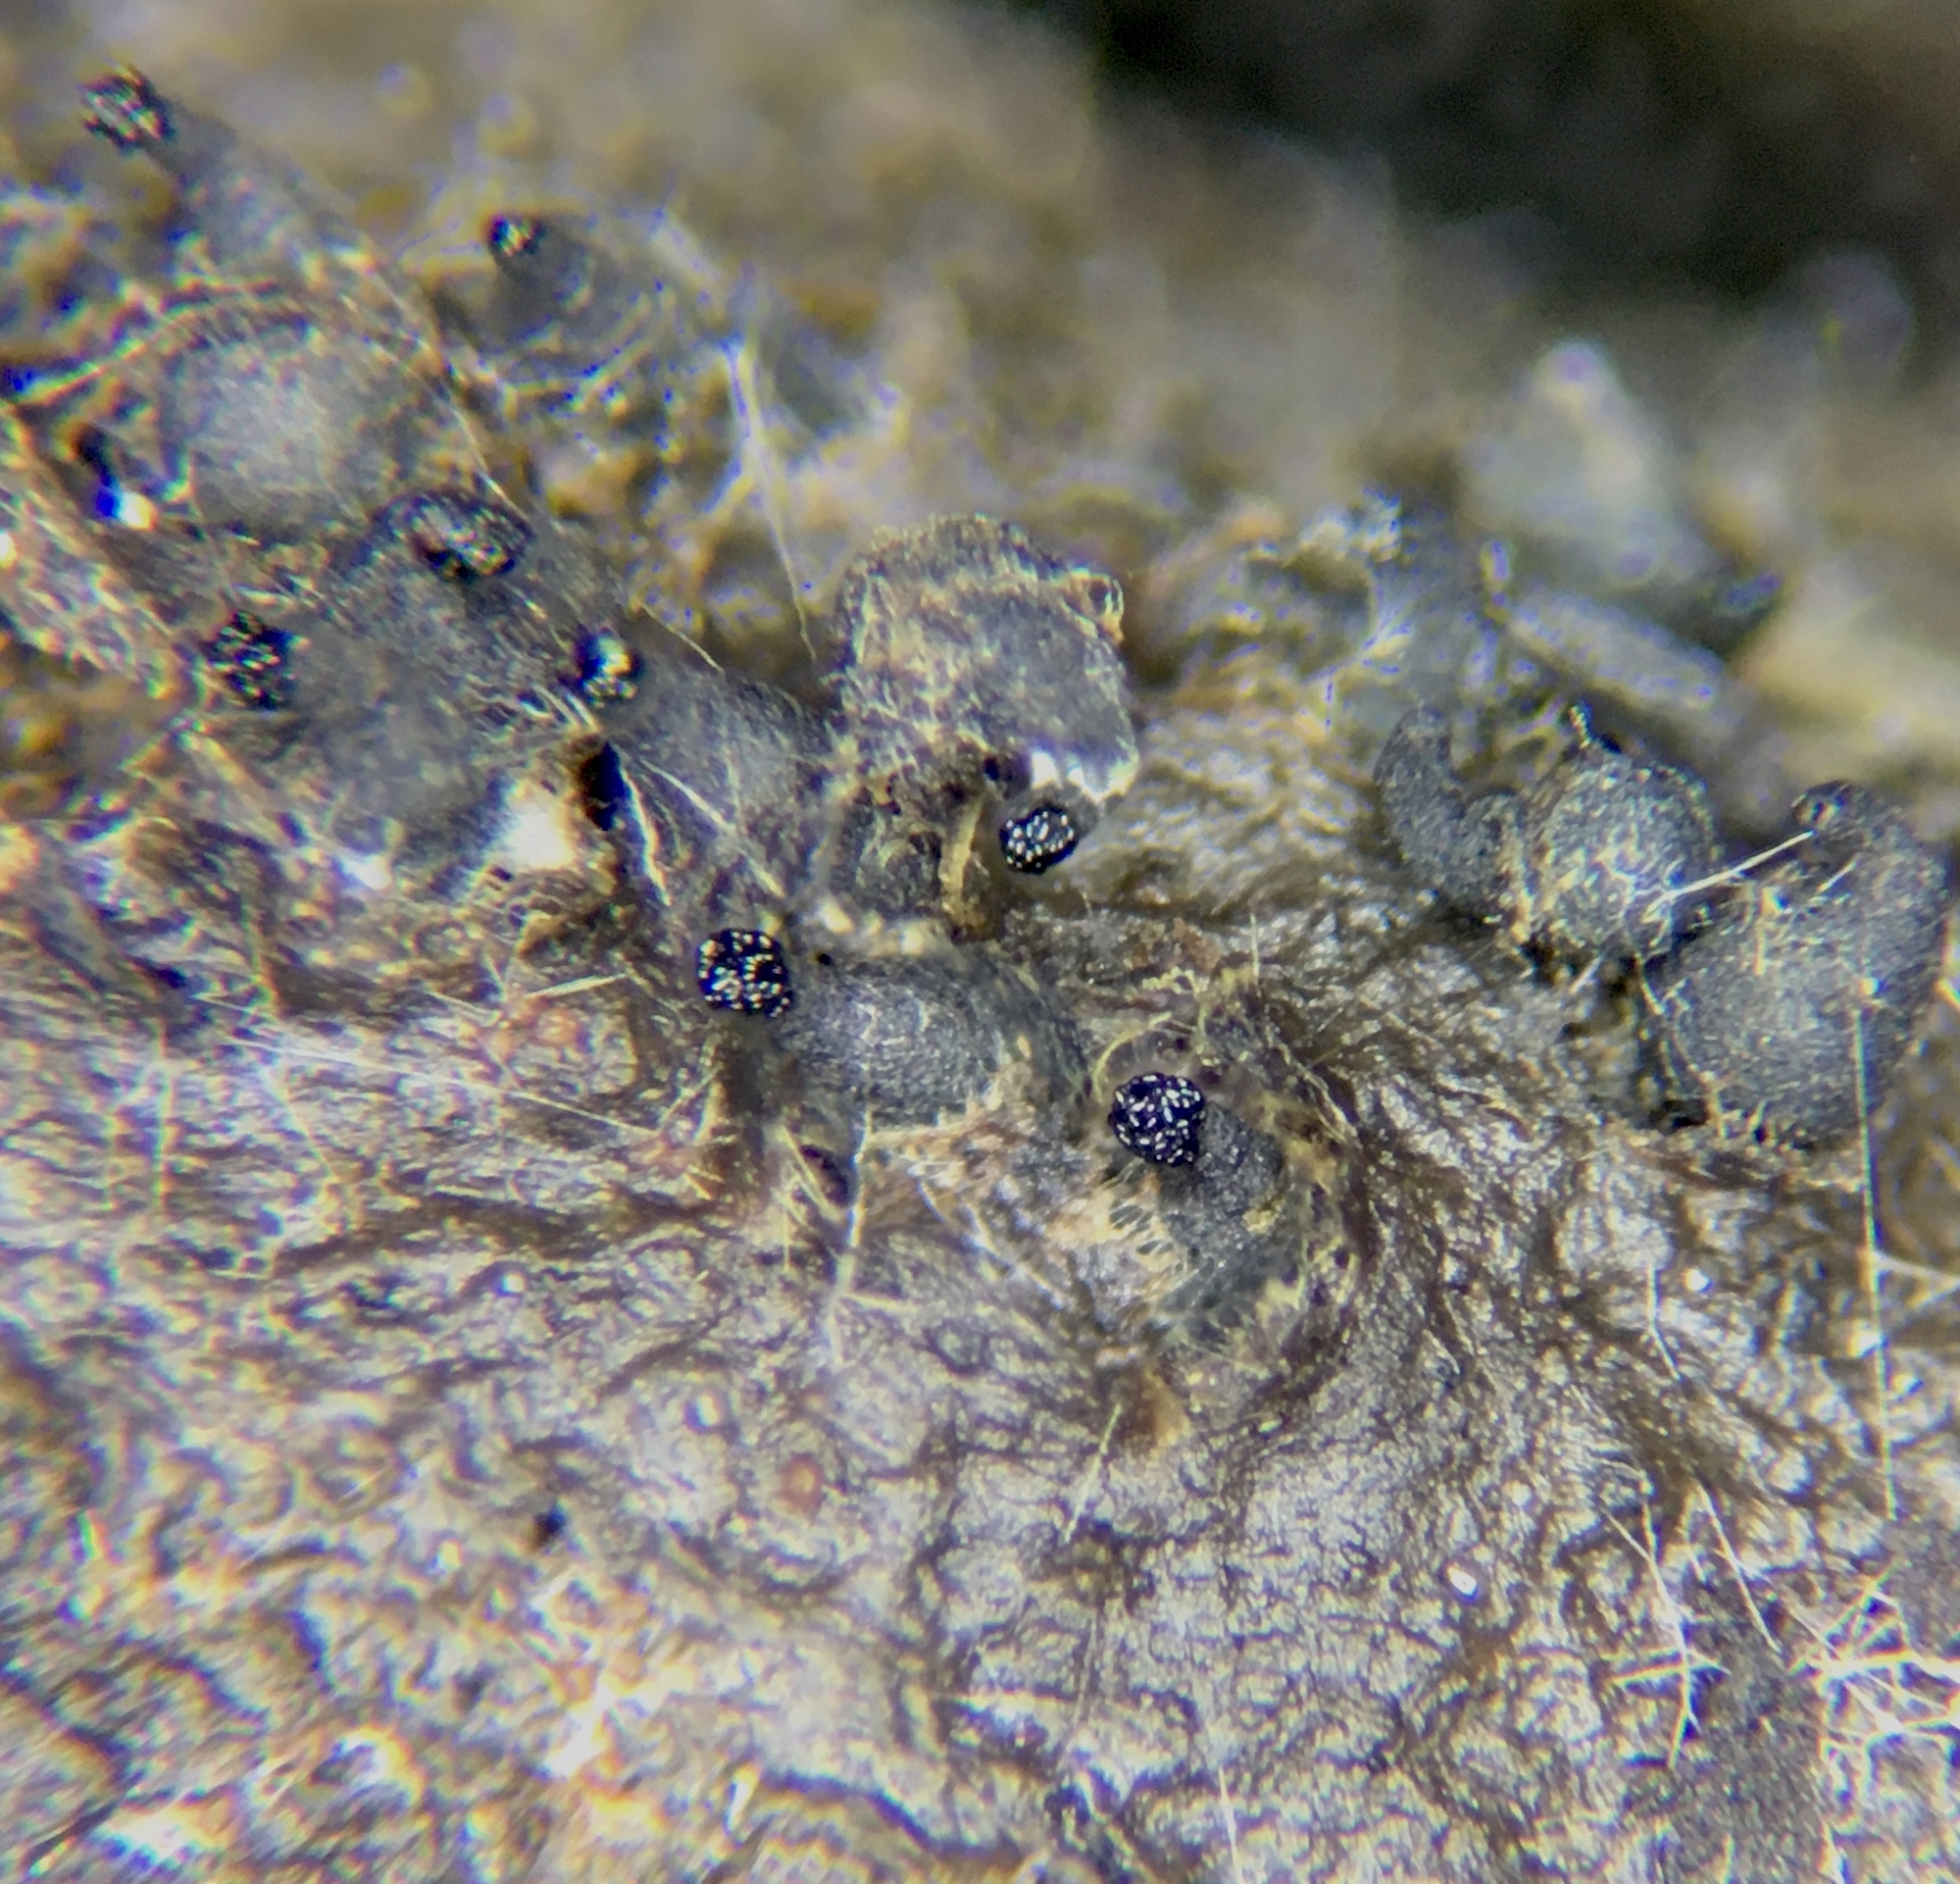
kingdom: Fungi
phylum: Ascomycota
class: Sordariomycetes
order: Sordariales
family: Lasiosphaeriaceae
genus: Arnium
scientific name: Arnium cirriferum
